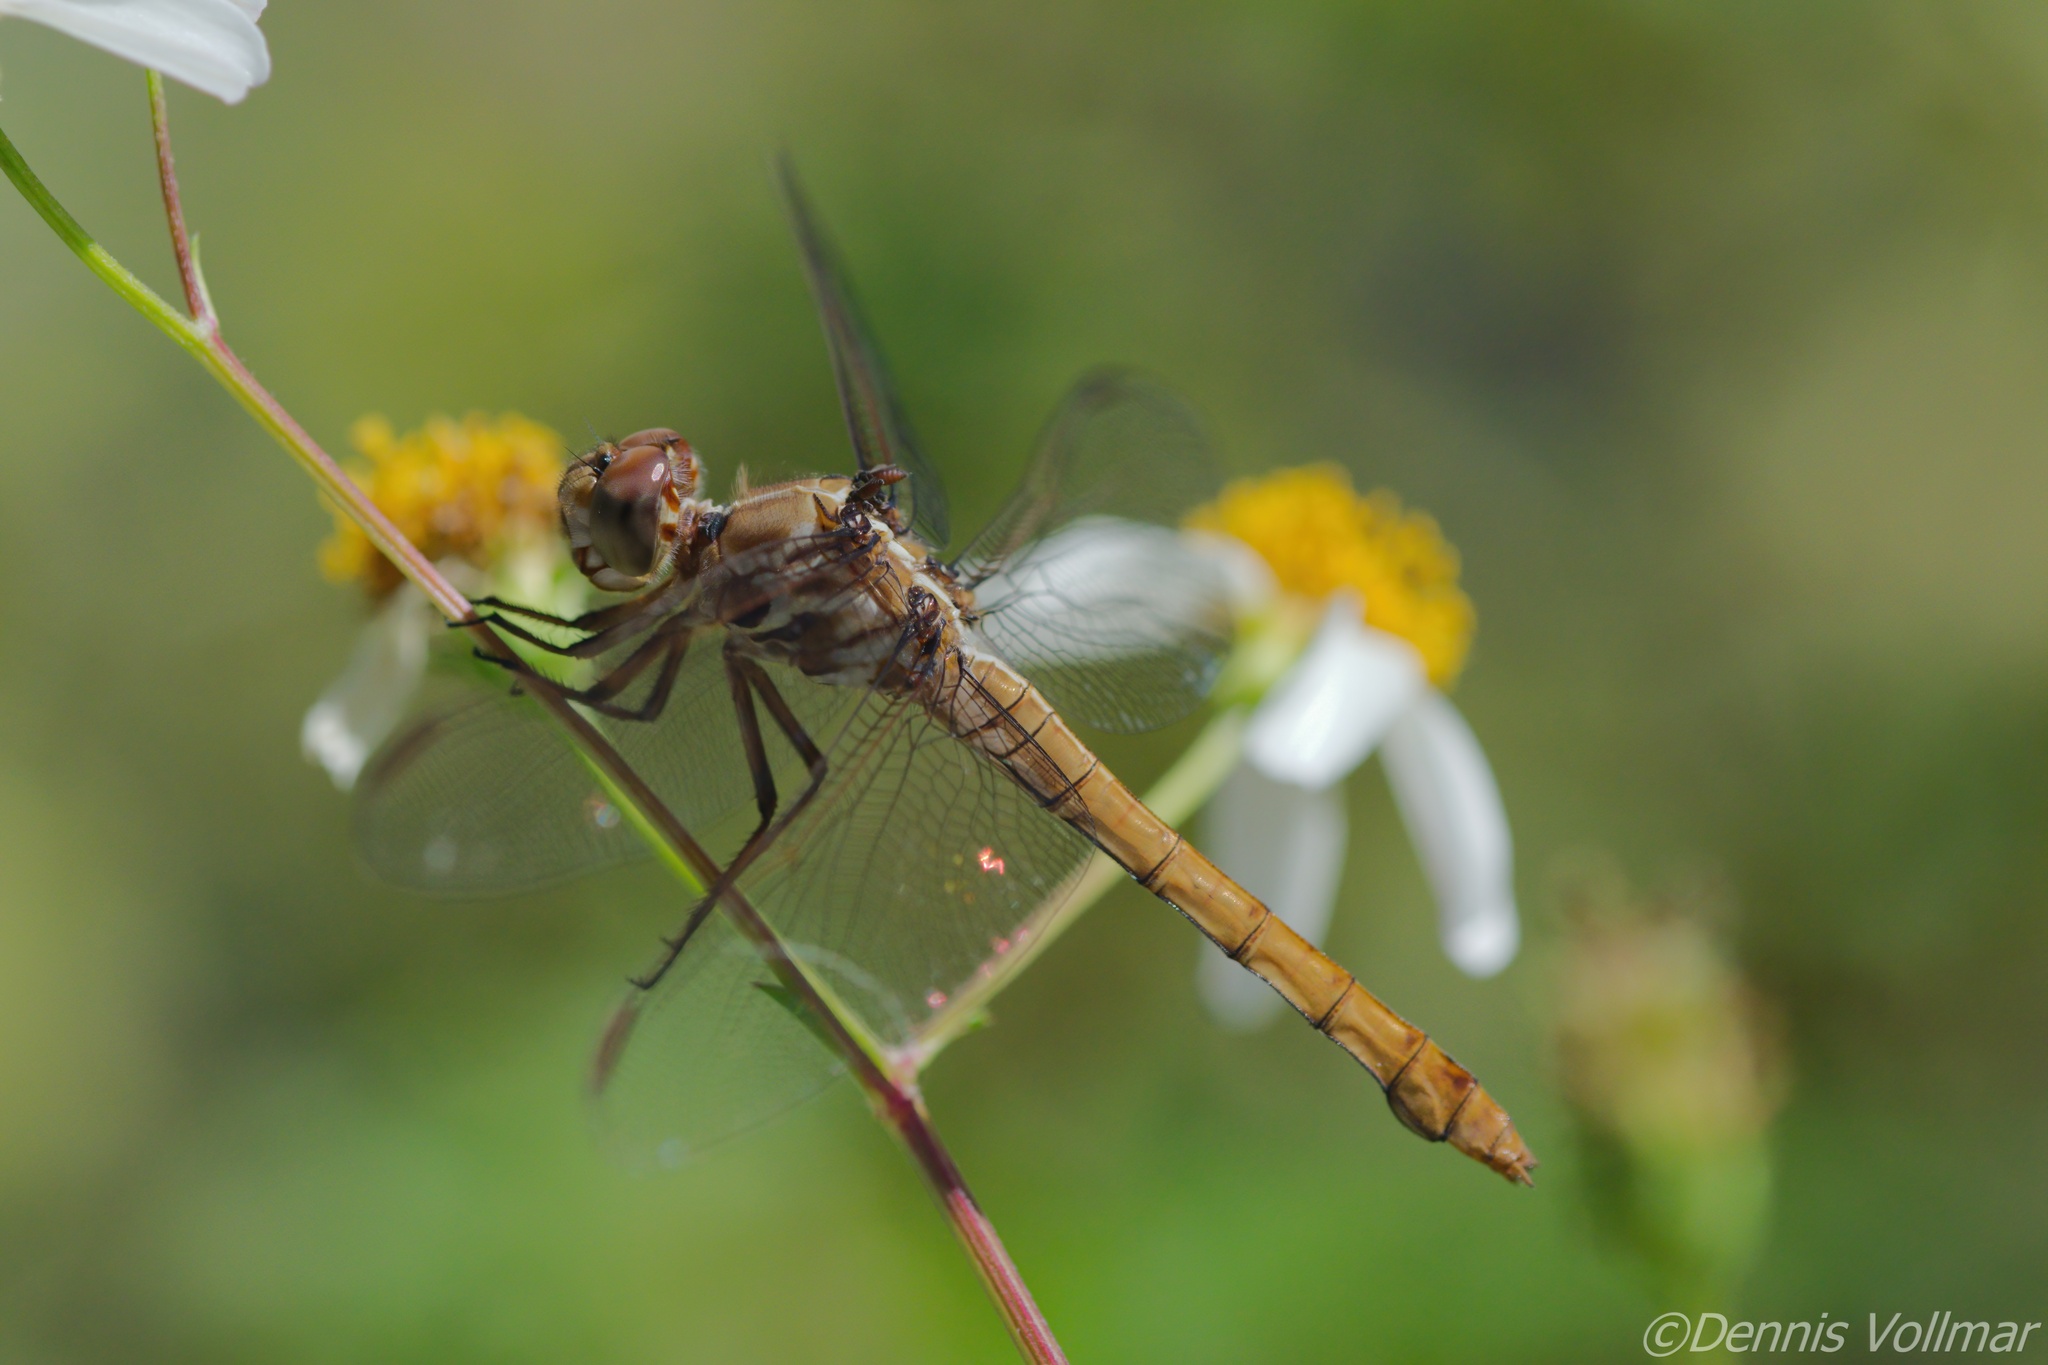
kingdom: Animalia
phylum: Arthropoda
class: Insecta
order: Odonata
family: Libellulidae
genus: Orthemis
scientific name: Orthemis ferruginea
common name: Roseate skimmer
